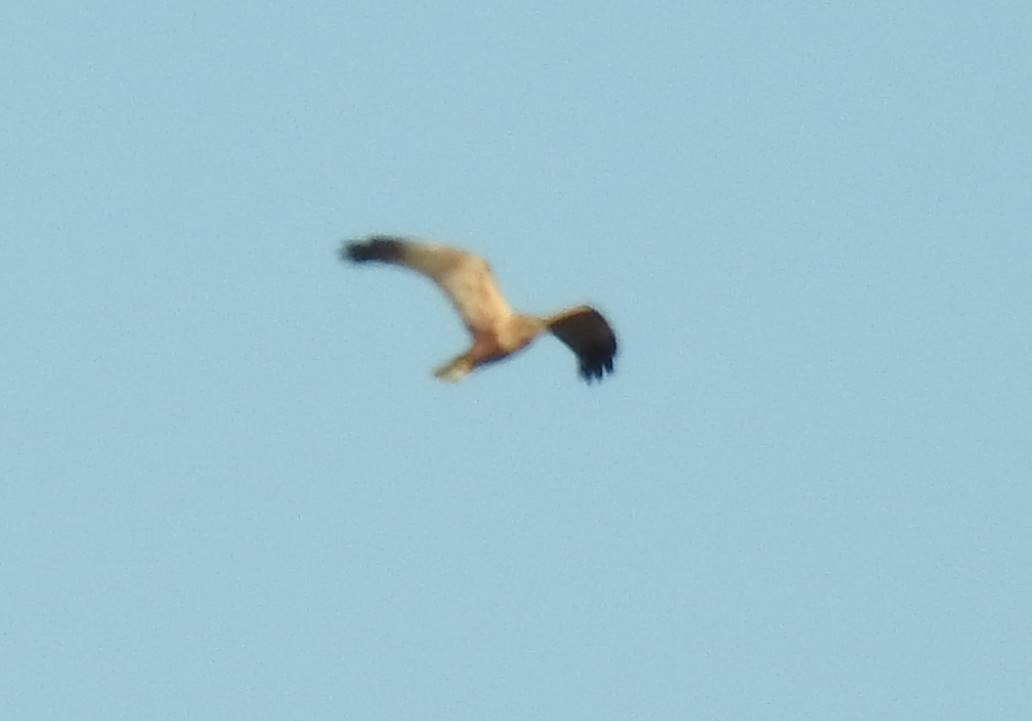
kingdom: Animalia
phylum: Chordata
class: Aves
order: Accipitriformes
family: Accipitridae
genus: Circus
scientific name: Circus aeruginosus
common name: Western marsh harrier
